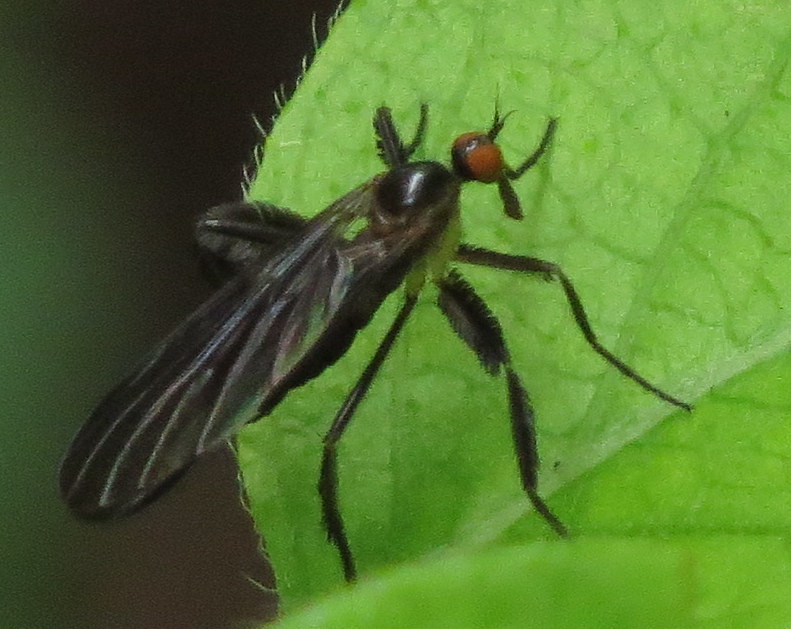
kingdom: Animalia
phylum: Arthropoda
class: Insecta
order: Diptera
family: Empididae
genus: Rhamphomyia
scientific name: Rhamphomyia longicauda
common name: Long-tailed dance fly
